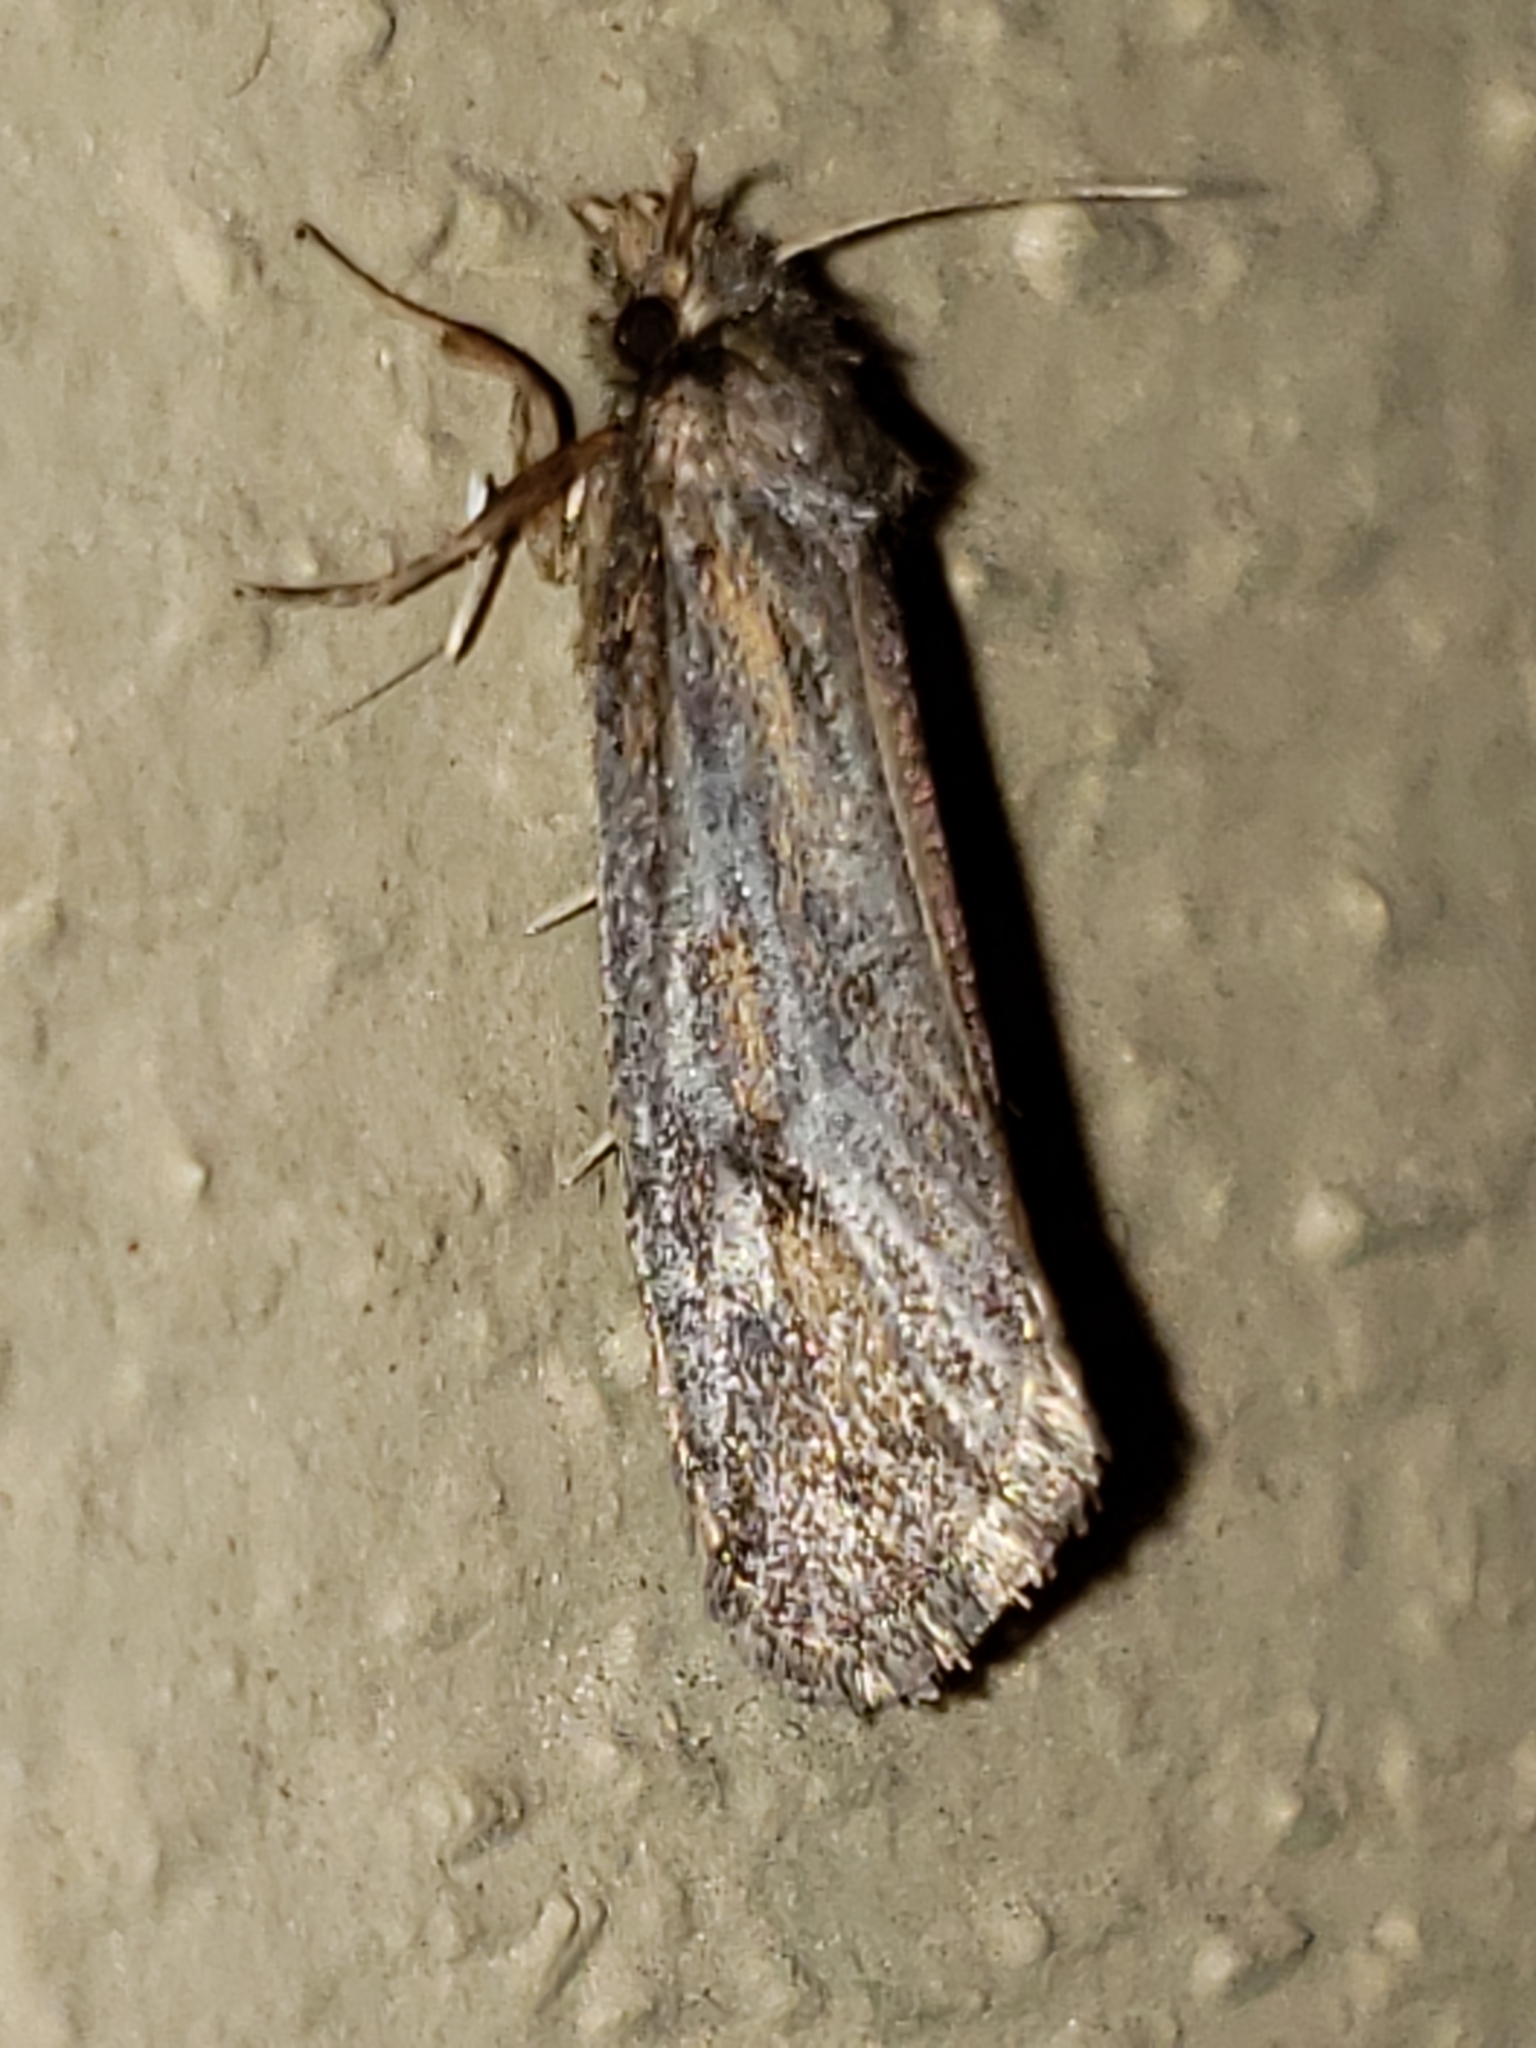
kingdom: Animalia
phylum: Arthropoda
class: Insecta
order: Lepidoptera
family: Tineidae
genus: Acrolophus
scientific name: Acrolophus popeanella
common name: Clemens' grass tubeworm moth
